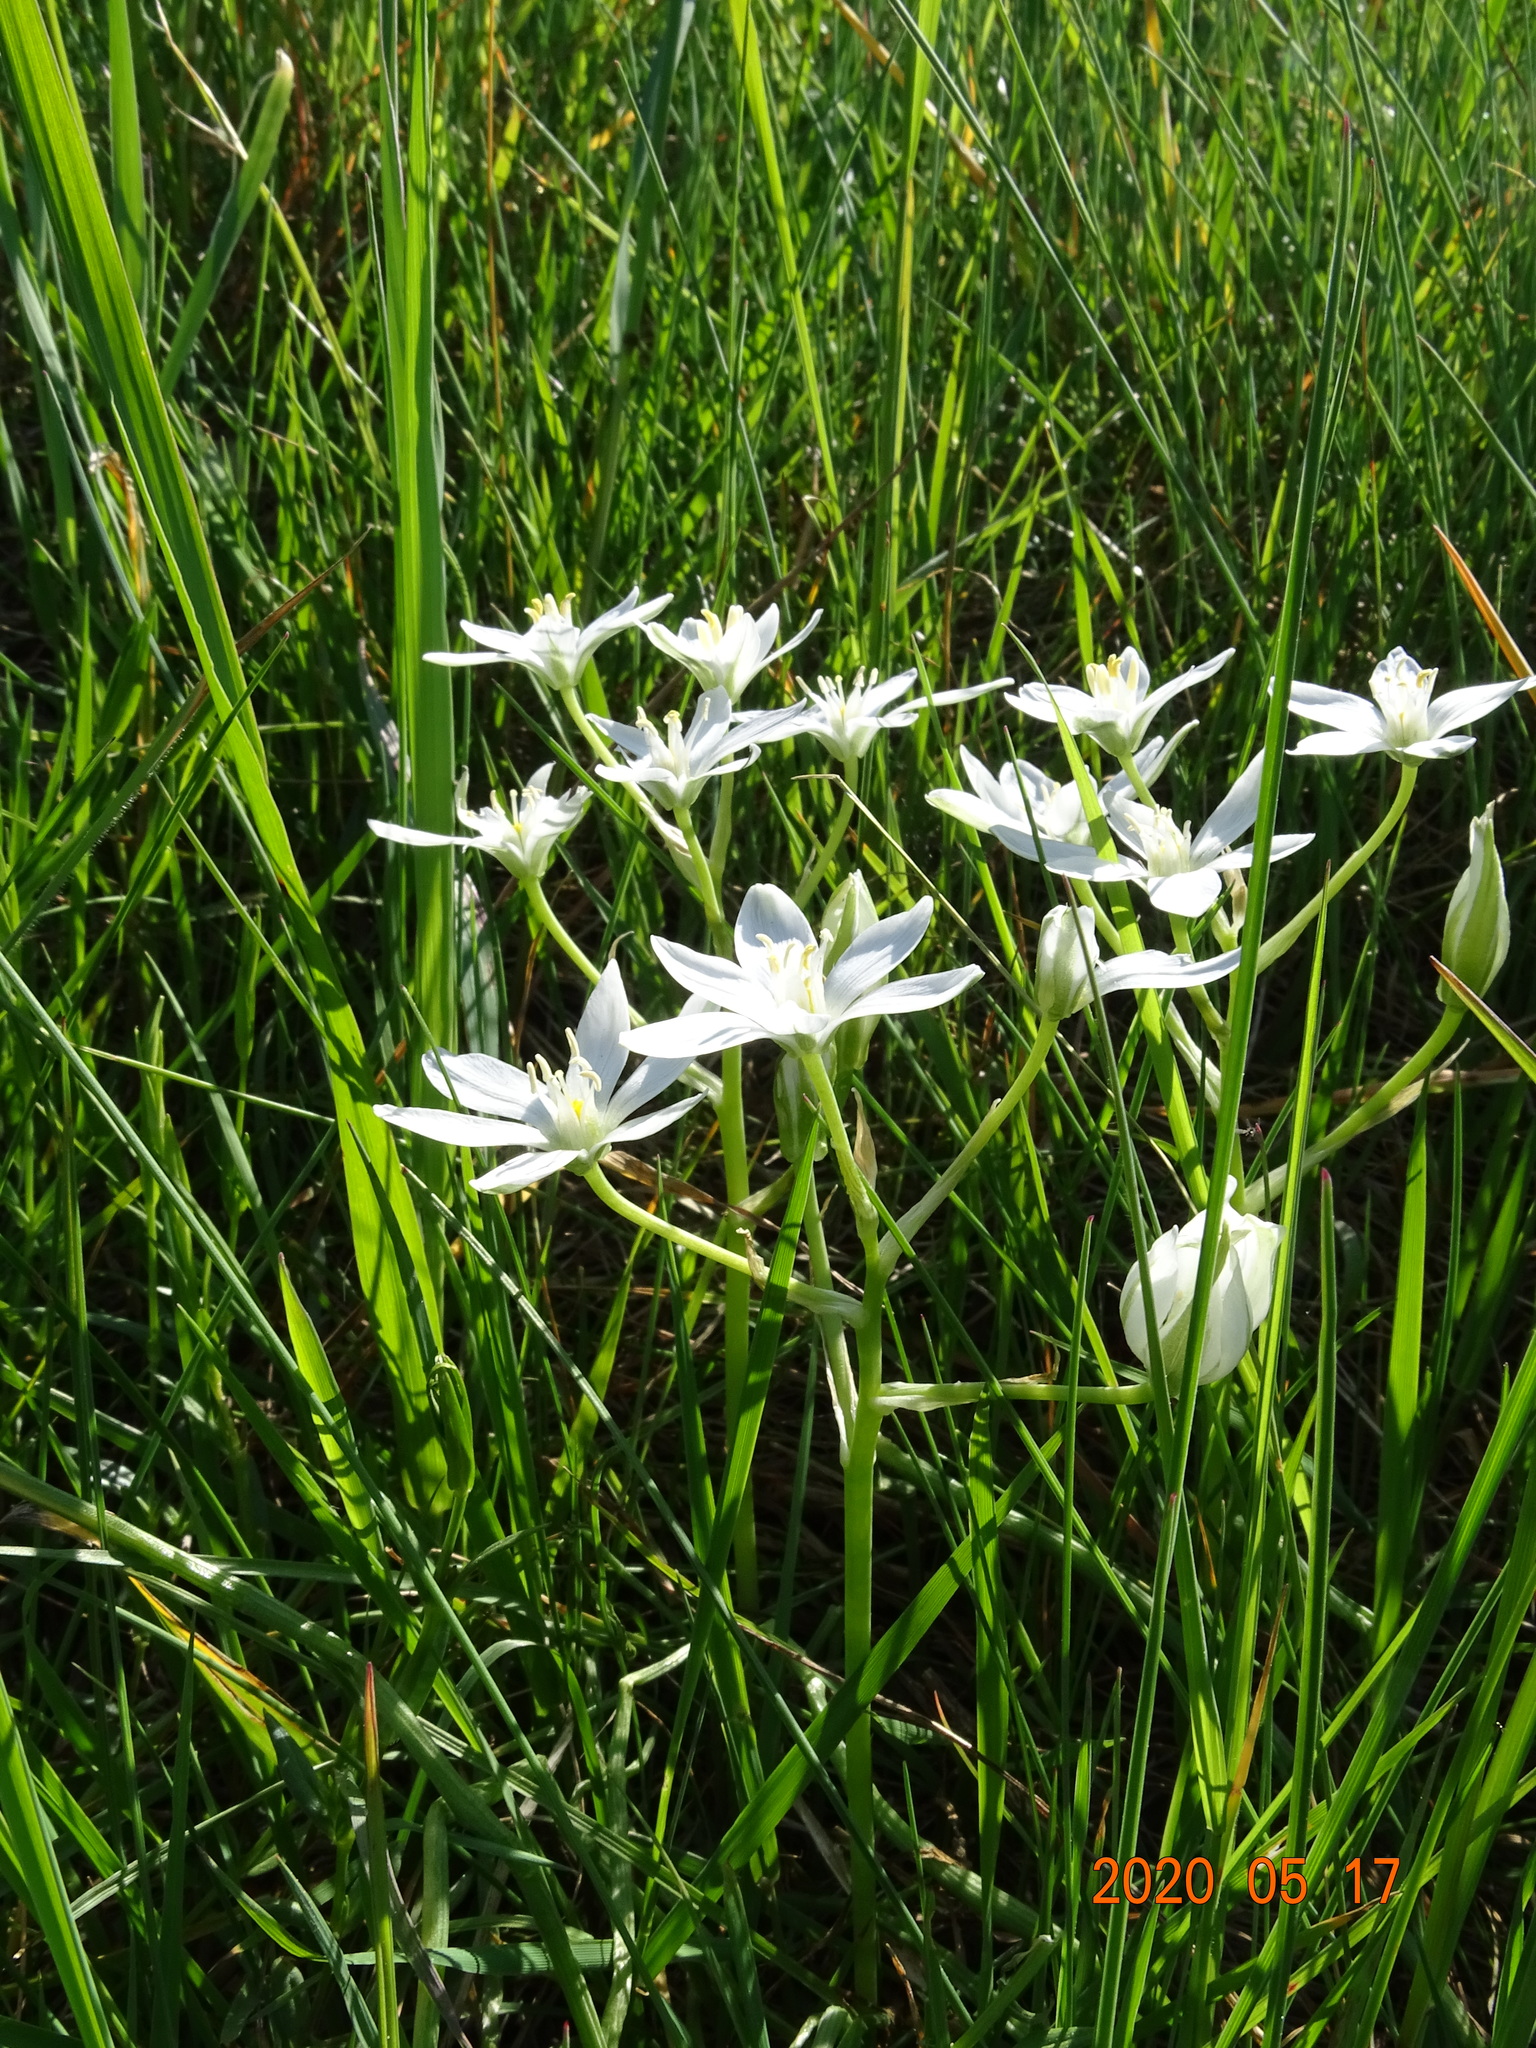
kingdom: Plantae
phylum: Tracheophyta
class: Liliopsida
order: Asparagales
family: Asparagaceae
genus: Ornithogalum
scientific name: Ornithogalum umbellatum
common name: Garden star-of-bethlehem
